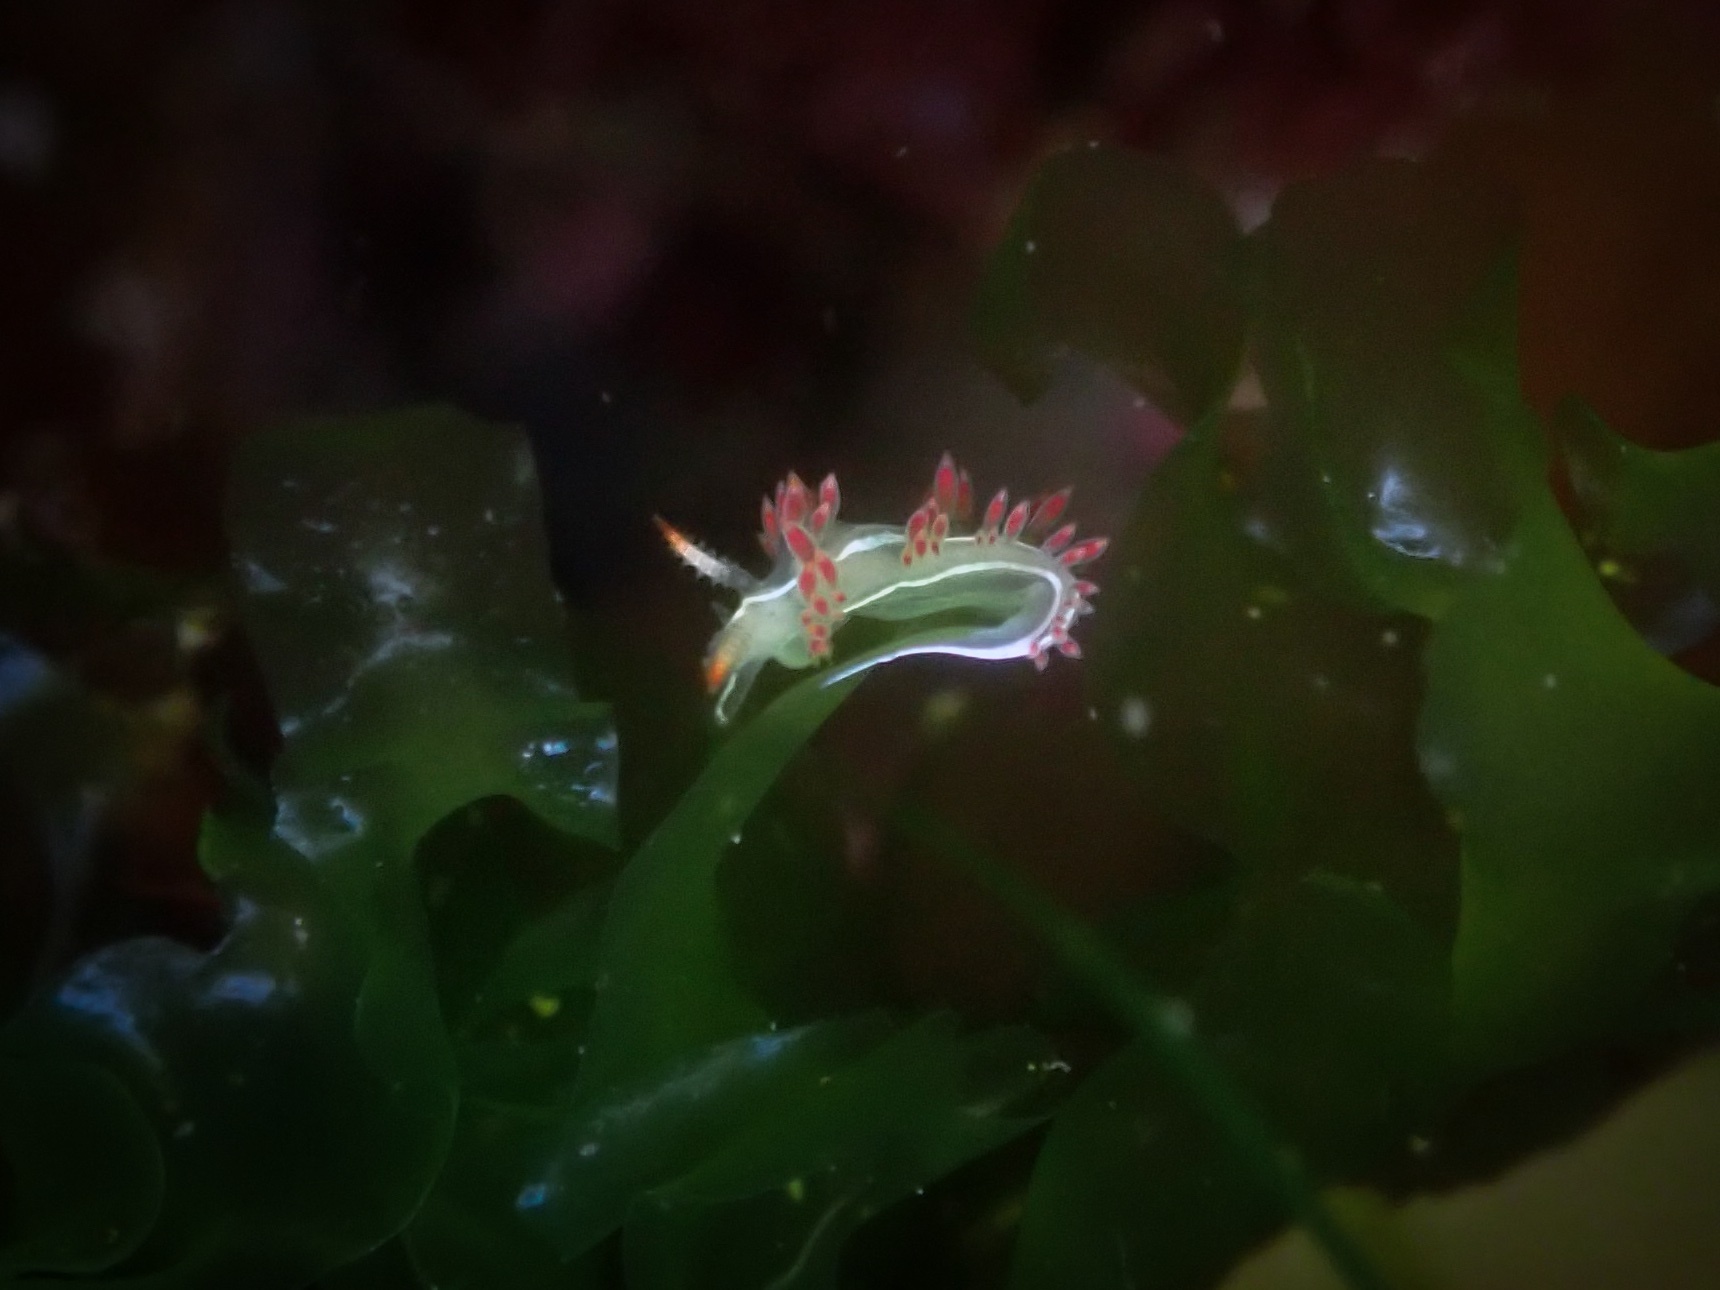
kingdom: Animalia
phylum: Mollusca
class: Gastropoda
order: Nudibranchia
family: Coryphellidae
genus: Coryphella
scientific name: Coryphella trilineata
